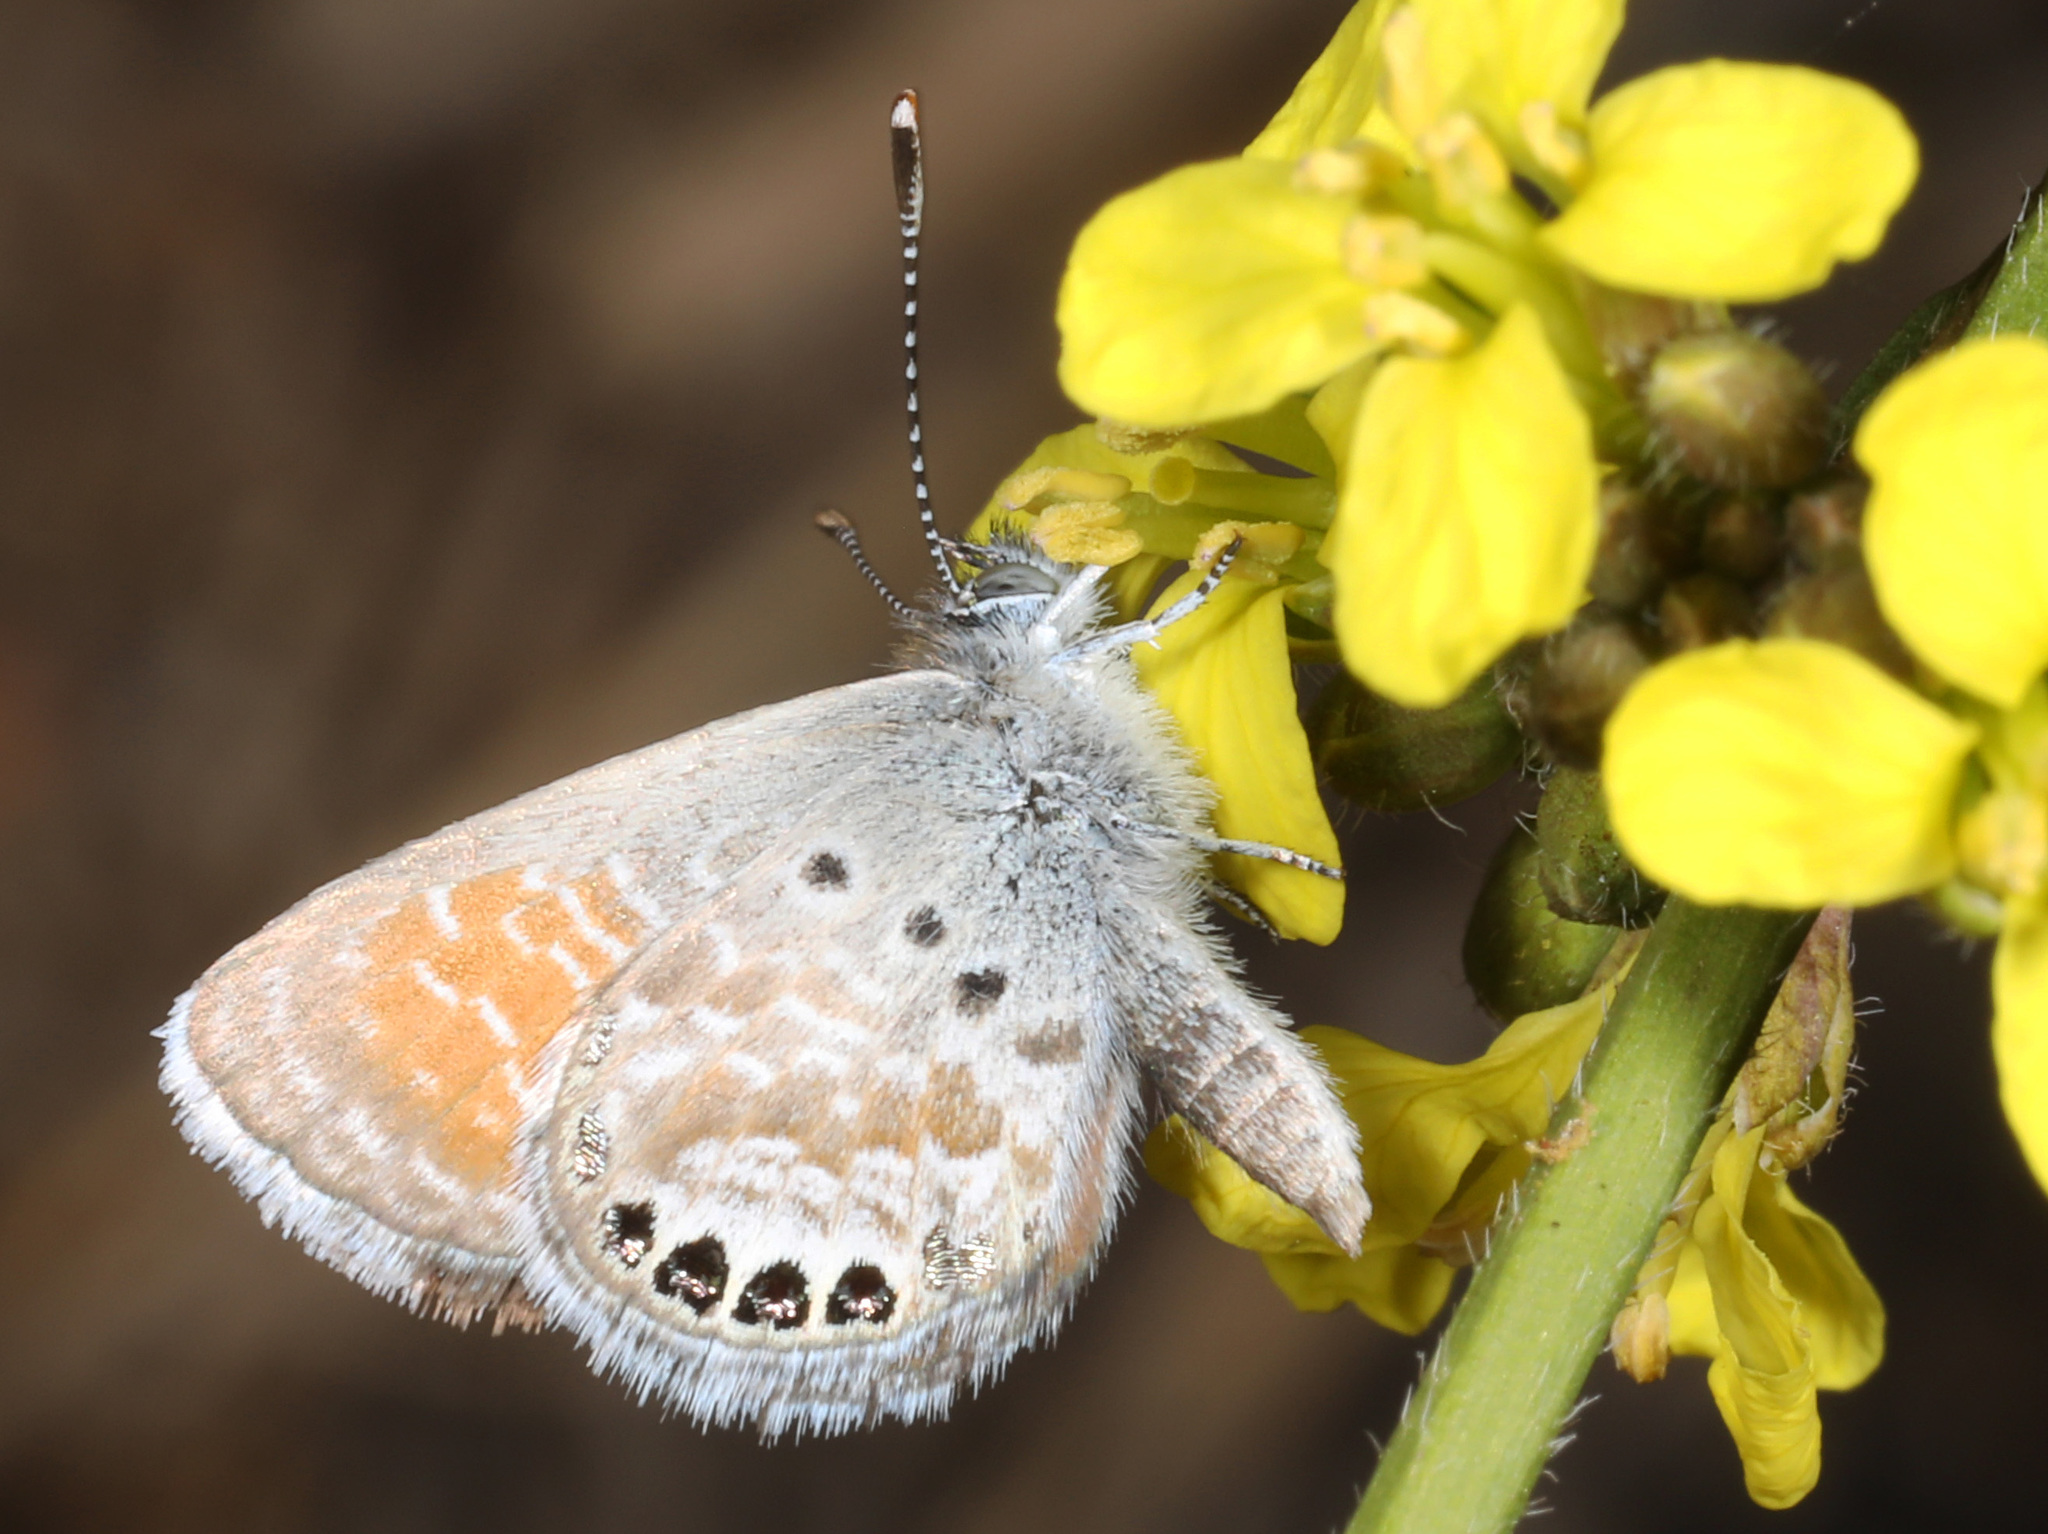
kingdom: Animalia
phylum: Arthropoda
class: Insecta
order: Lepidoptera
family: Lycaenidae
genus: Brephidium
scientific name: Brephidium exilis
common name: Pygmy blue
